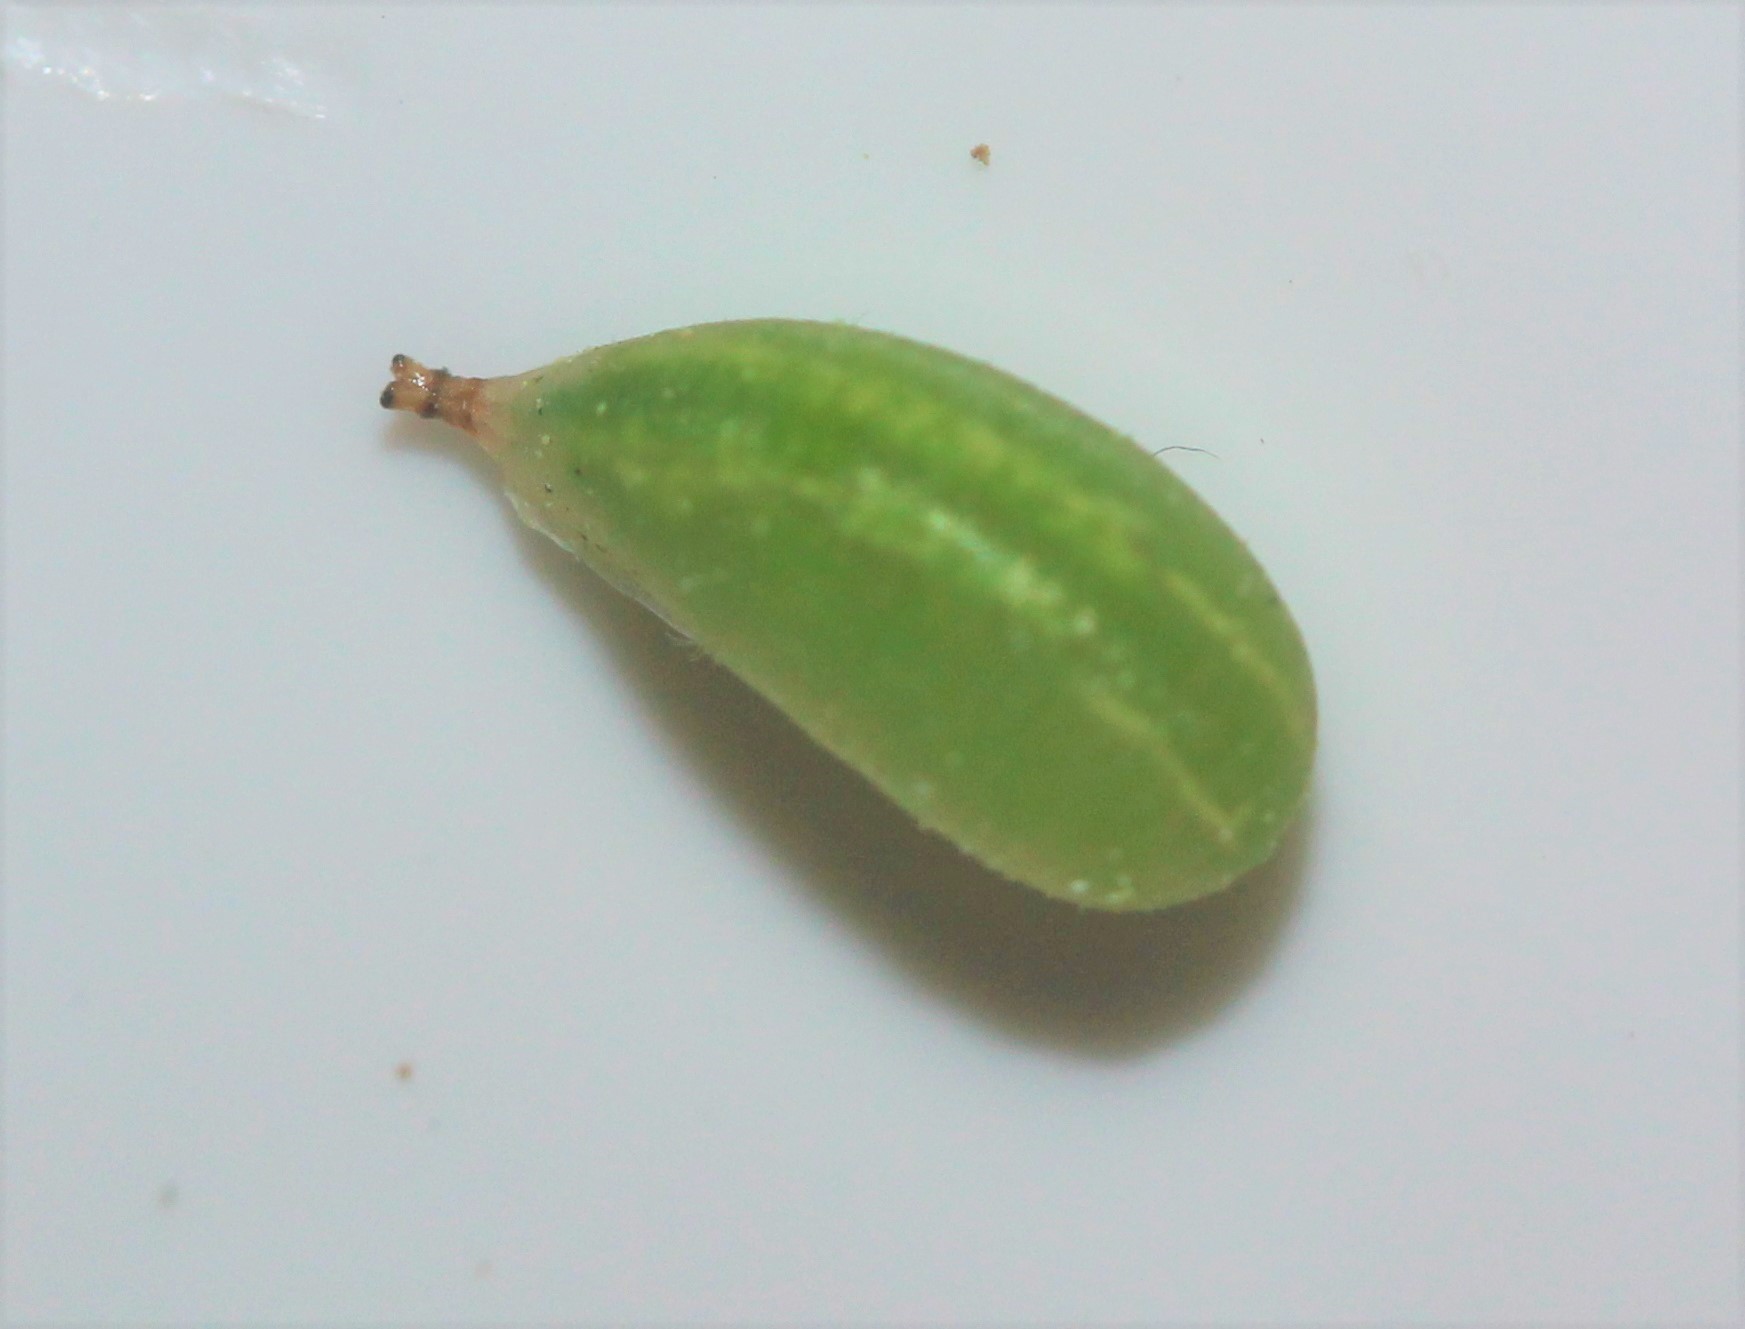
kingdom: Animalia
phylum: Arthropoda
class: Insecta
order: Diptera
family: Syrphidae
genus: Allograpta
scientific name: Allograpta obliqua
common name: Common oblique syrphid
